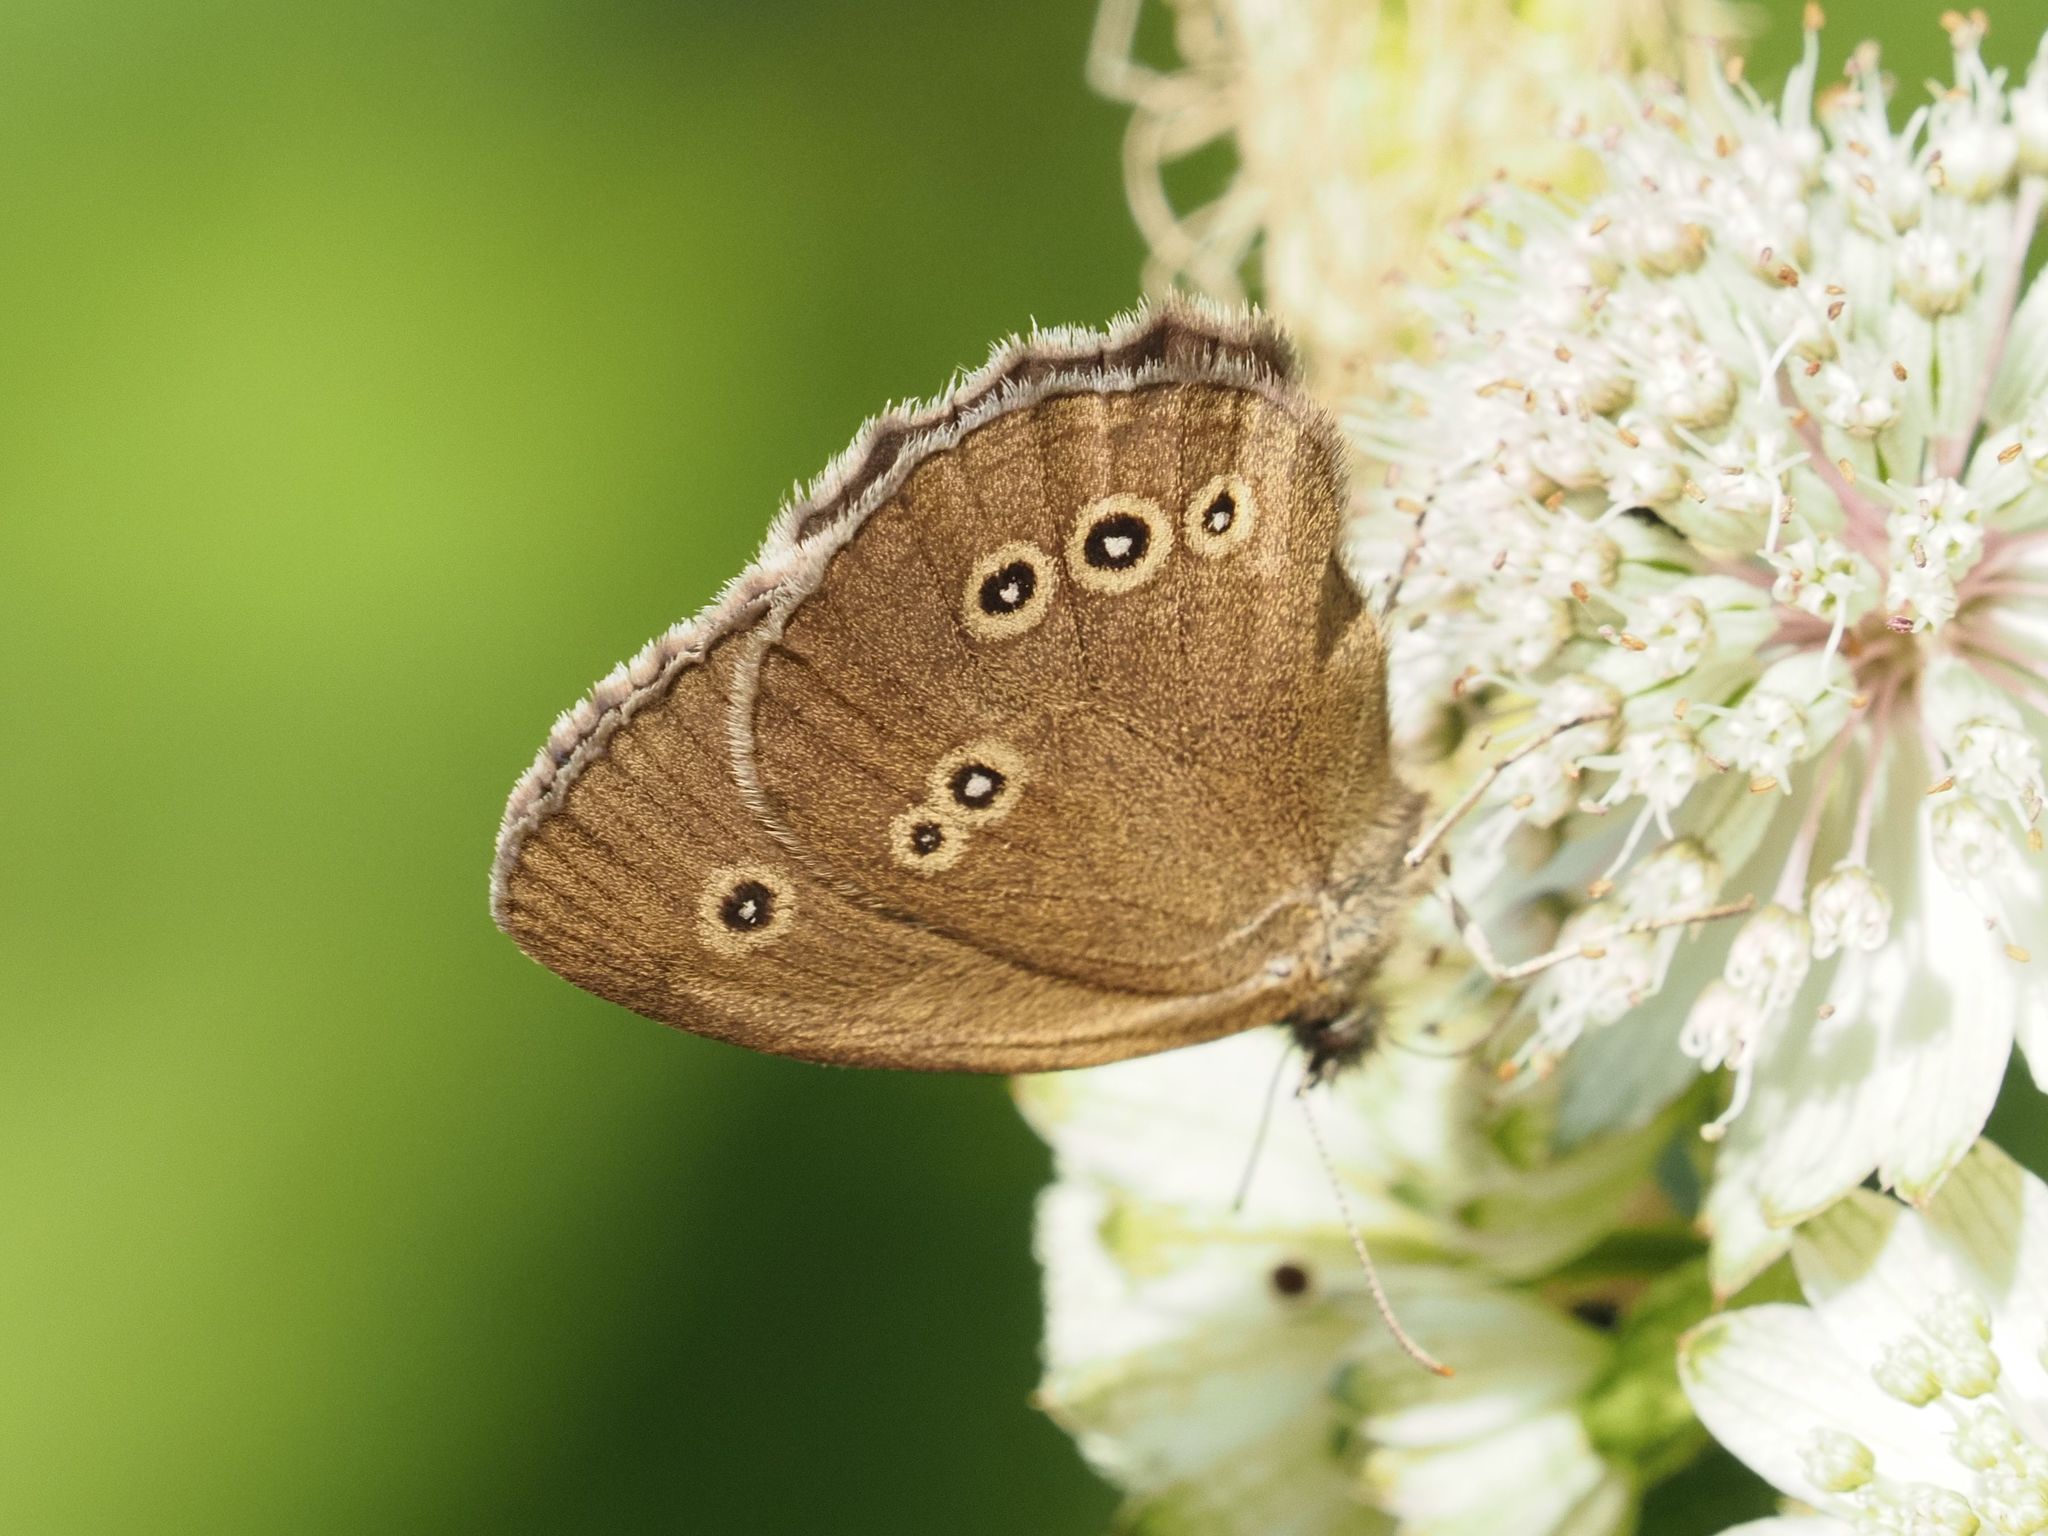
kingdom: Animalia
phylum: Arthropoda
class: Insecta
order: Lepidoptera
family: Nymphalidae
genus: Aphantopus
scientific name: Aphantopus hyperantus
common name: Ringlet
